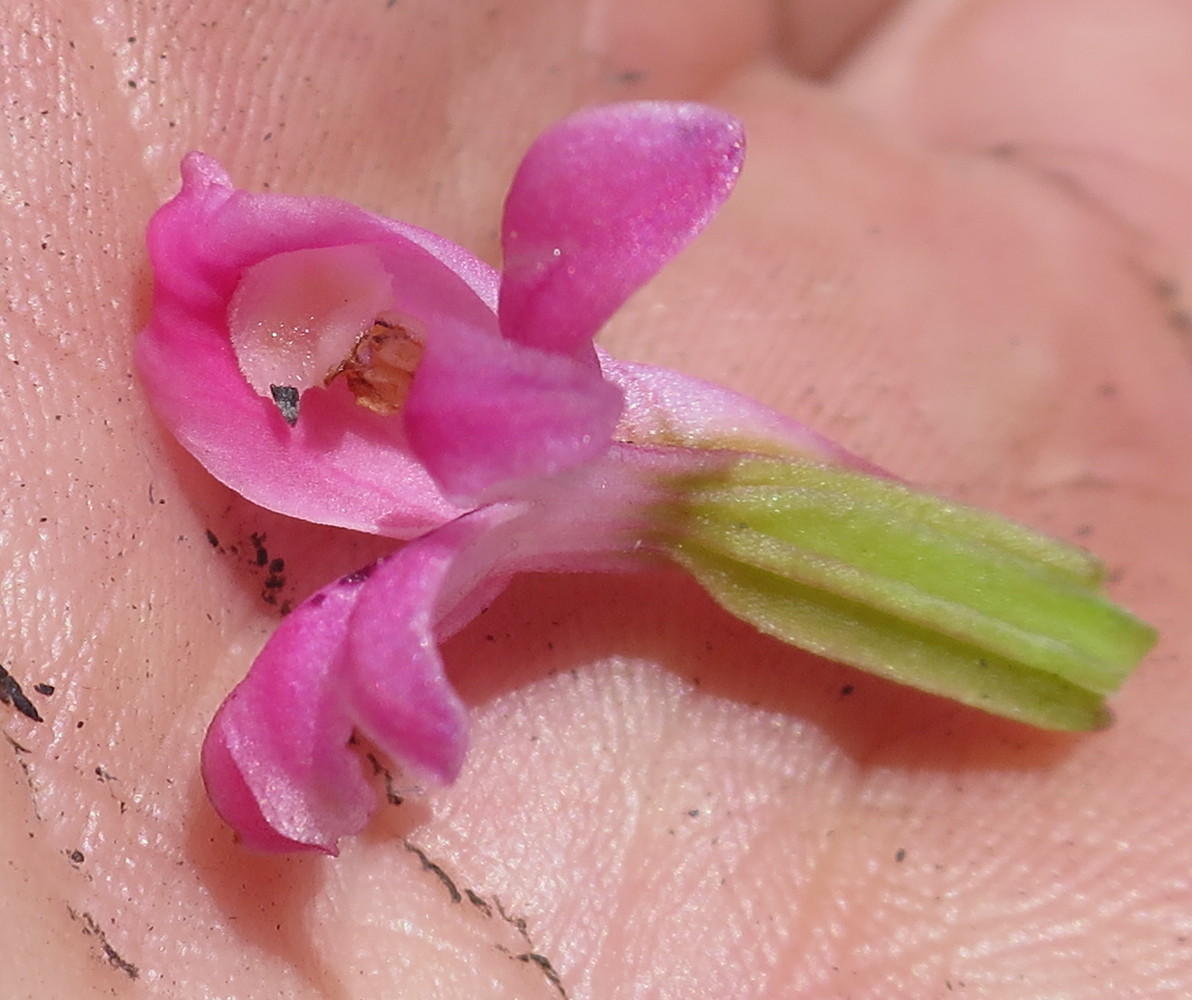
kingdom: Plantae
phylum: Tracheophyta
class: Liliopsida
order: Asparagales
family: Orchidaceae
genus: Satyrium
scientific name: Satyrium erectum
